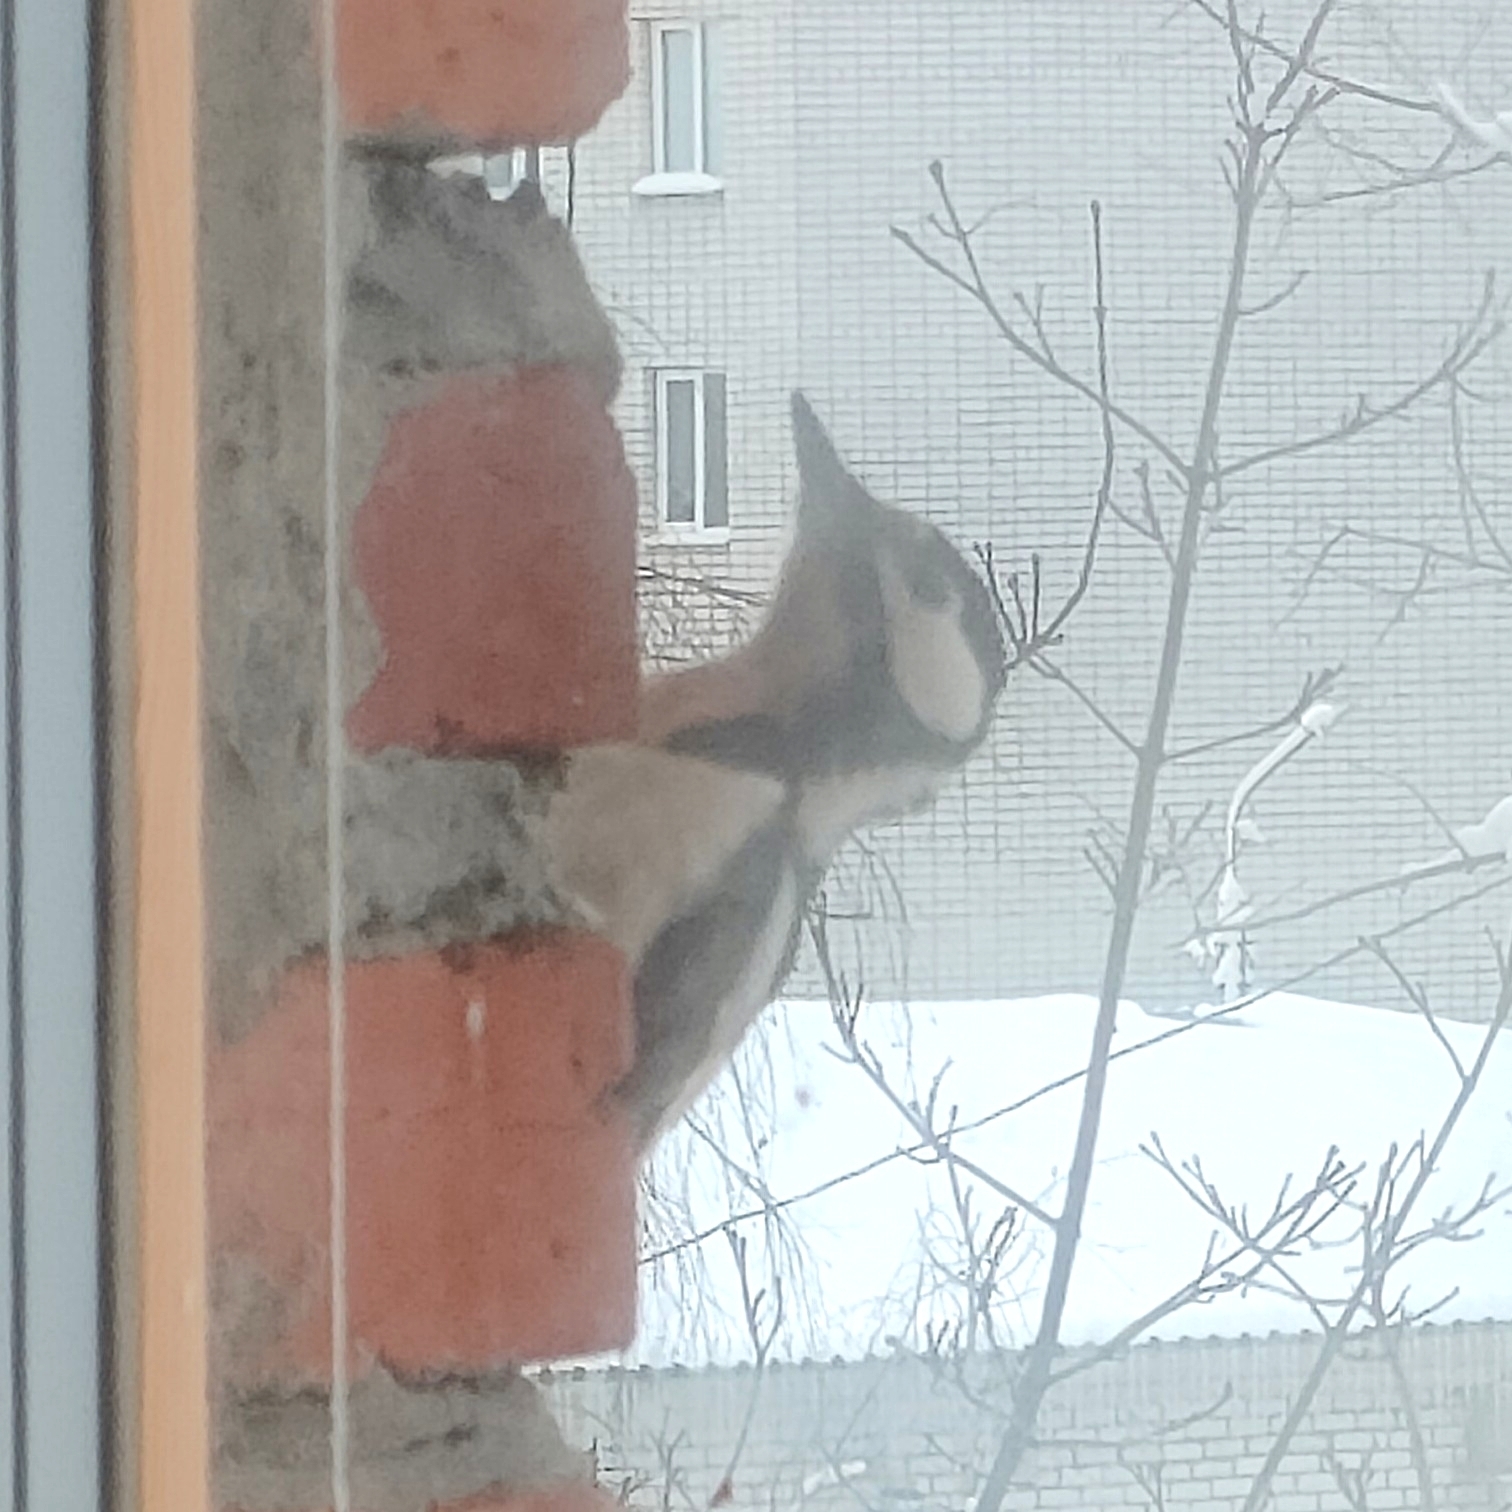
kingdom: Animalia
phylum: Chordata
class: Aves
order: Piciformes
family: Picidae
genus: Dendrocopos
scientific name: Dendrocopos major
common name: Great spotted woodpecker
